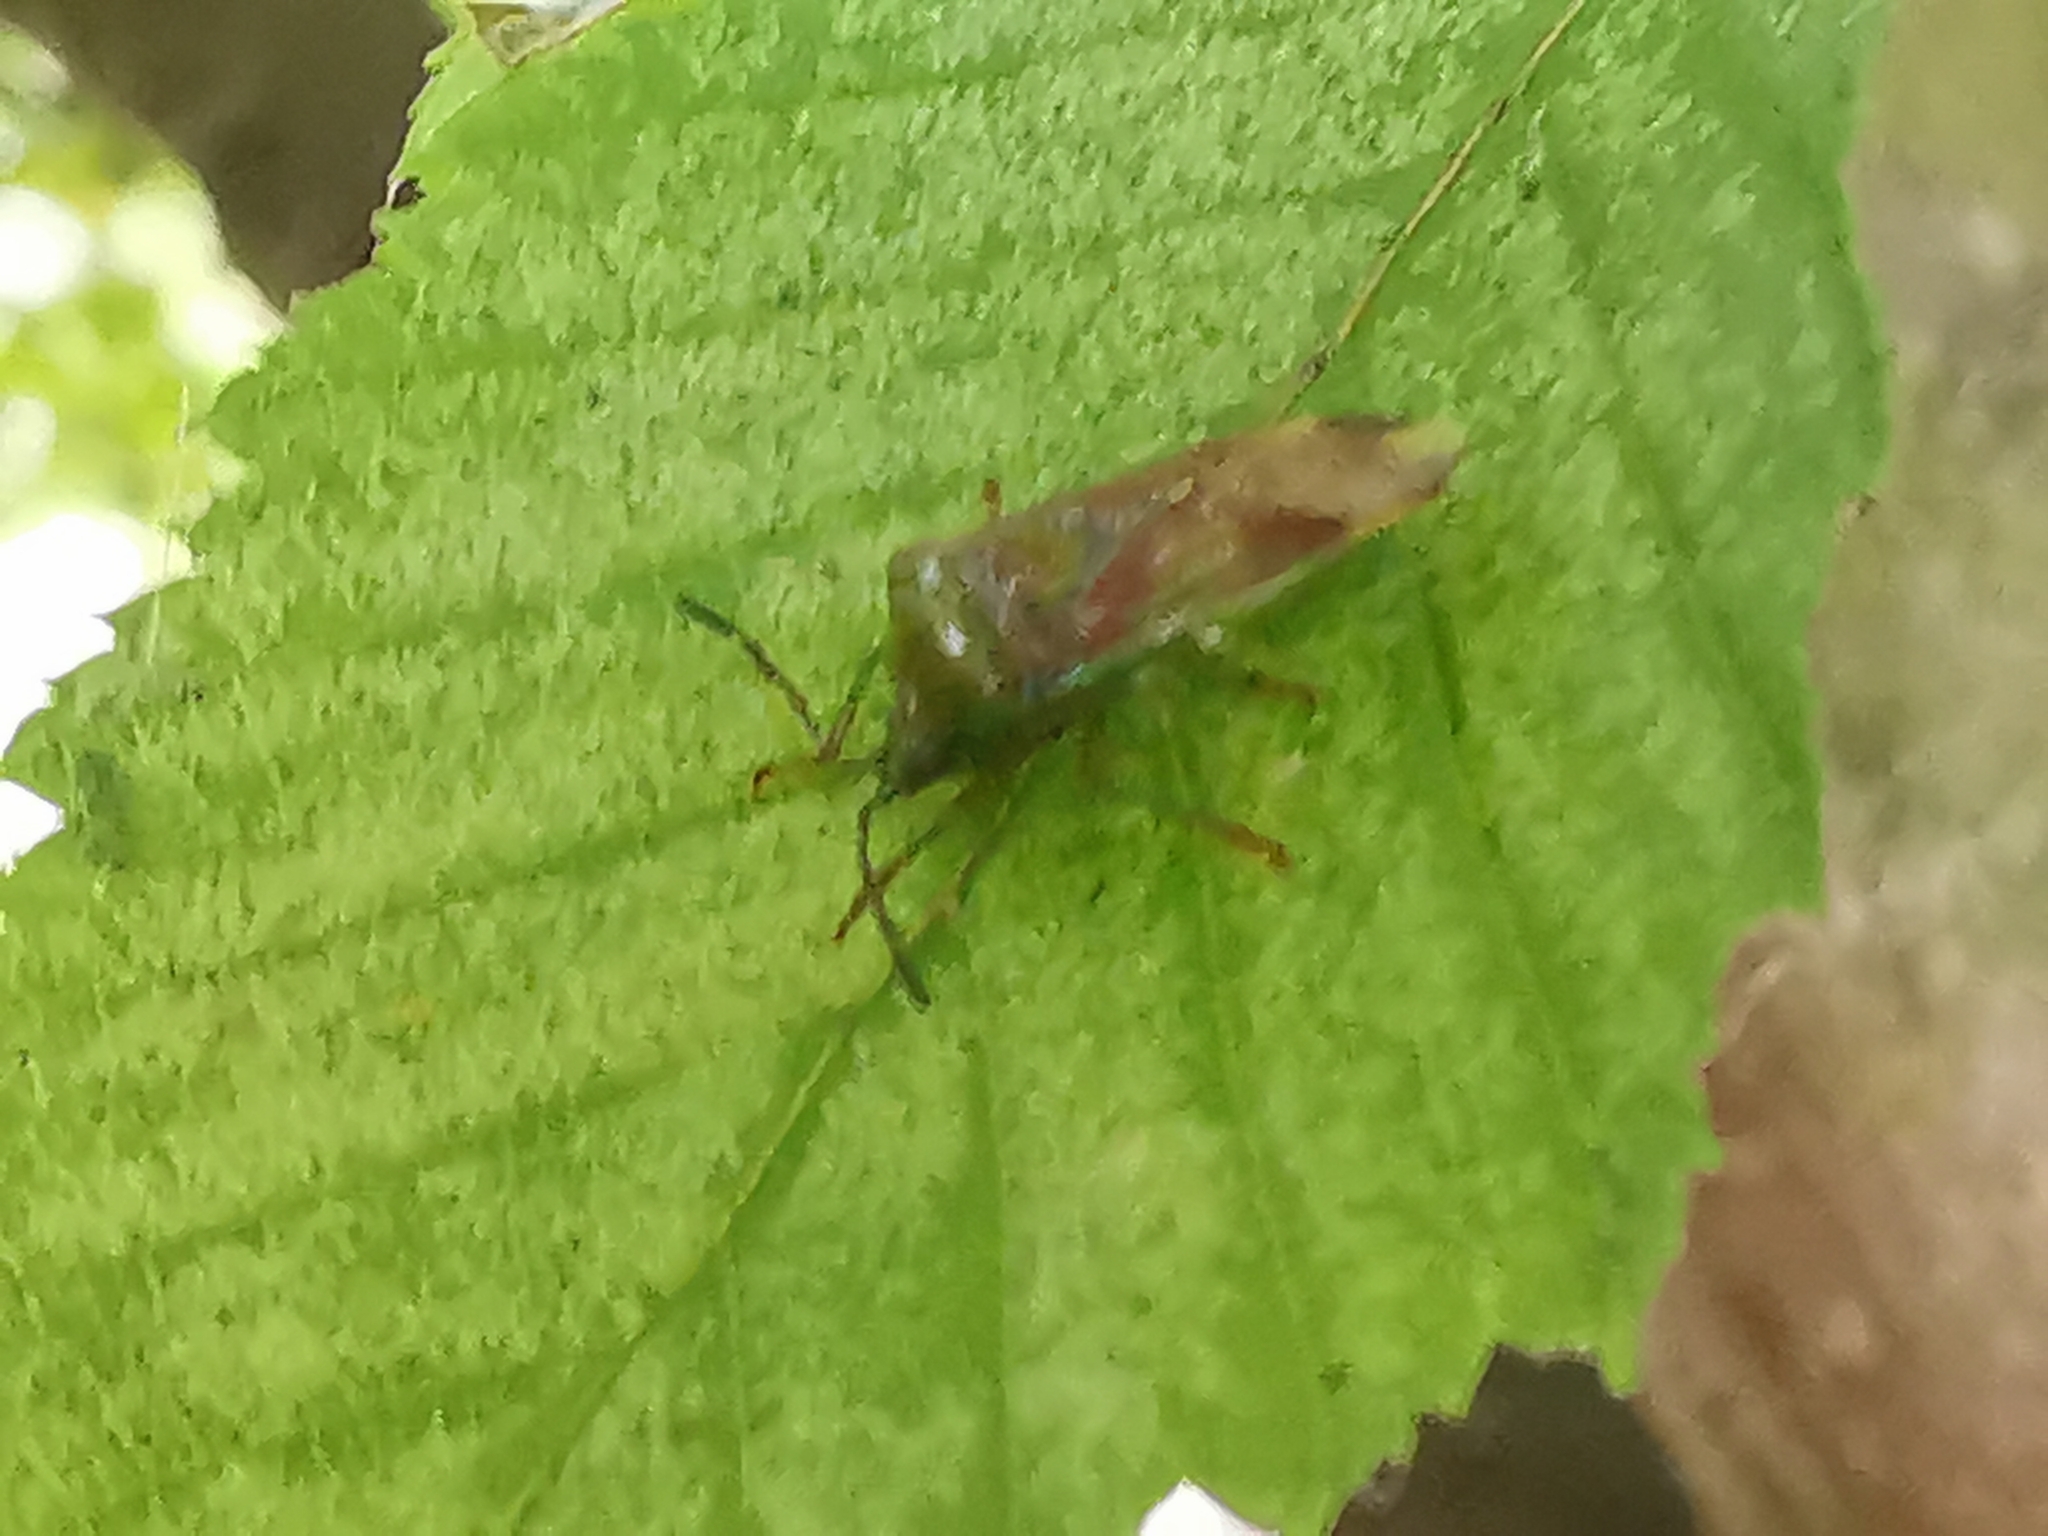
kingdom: Animalia
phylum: Arthropoda
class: Insecta
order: Hemiptera
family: Acanthosomatidae
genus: Elasmostethus
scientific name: Elasmostethus interstinctus
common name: Birch shieldbug
